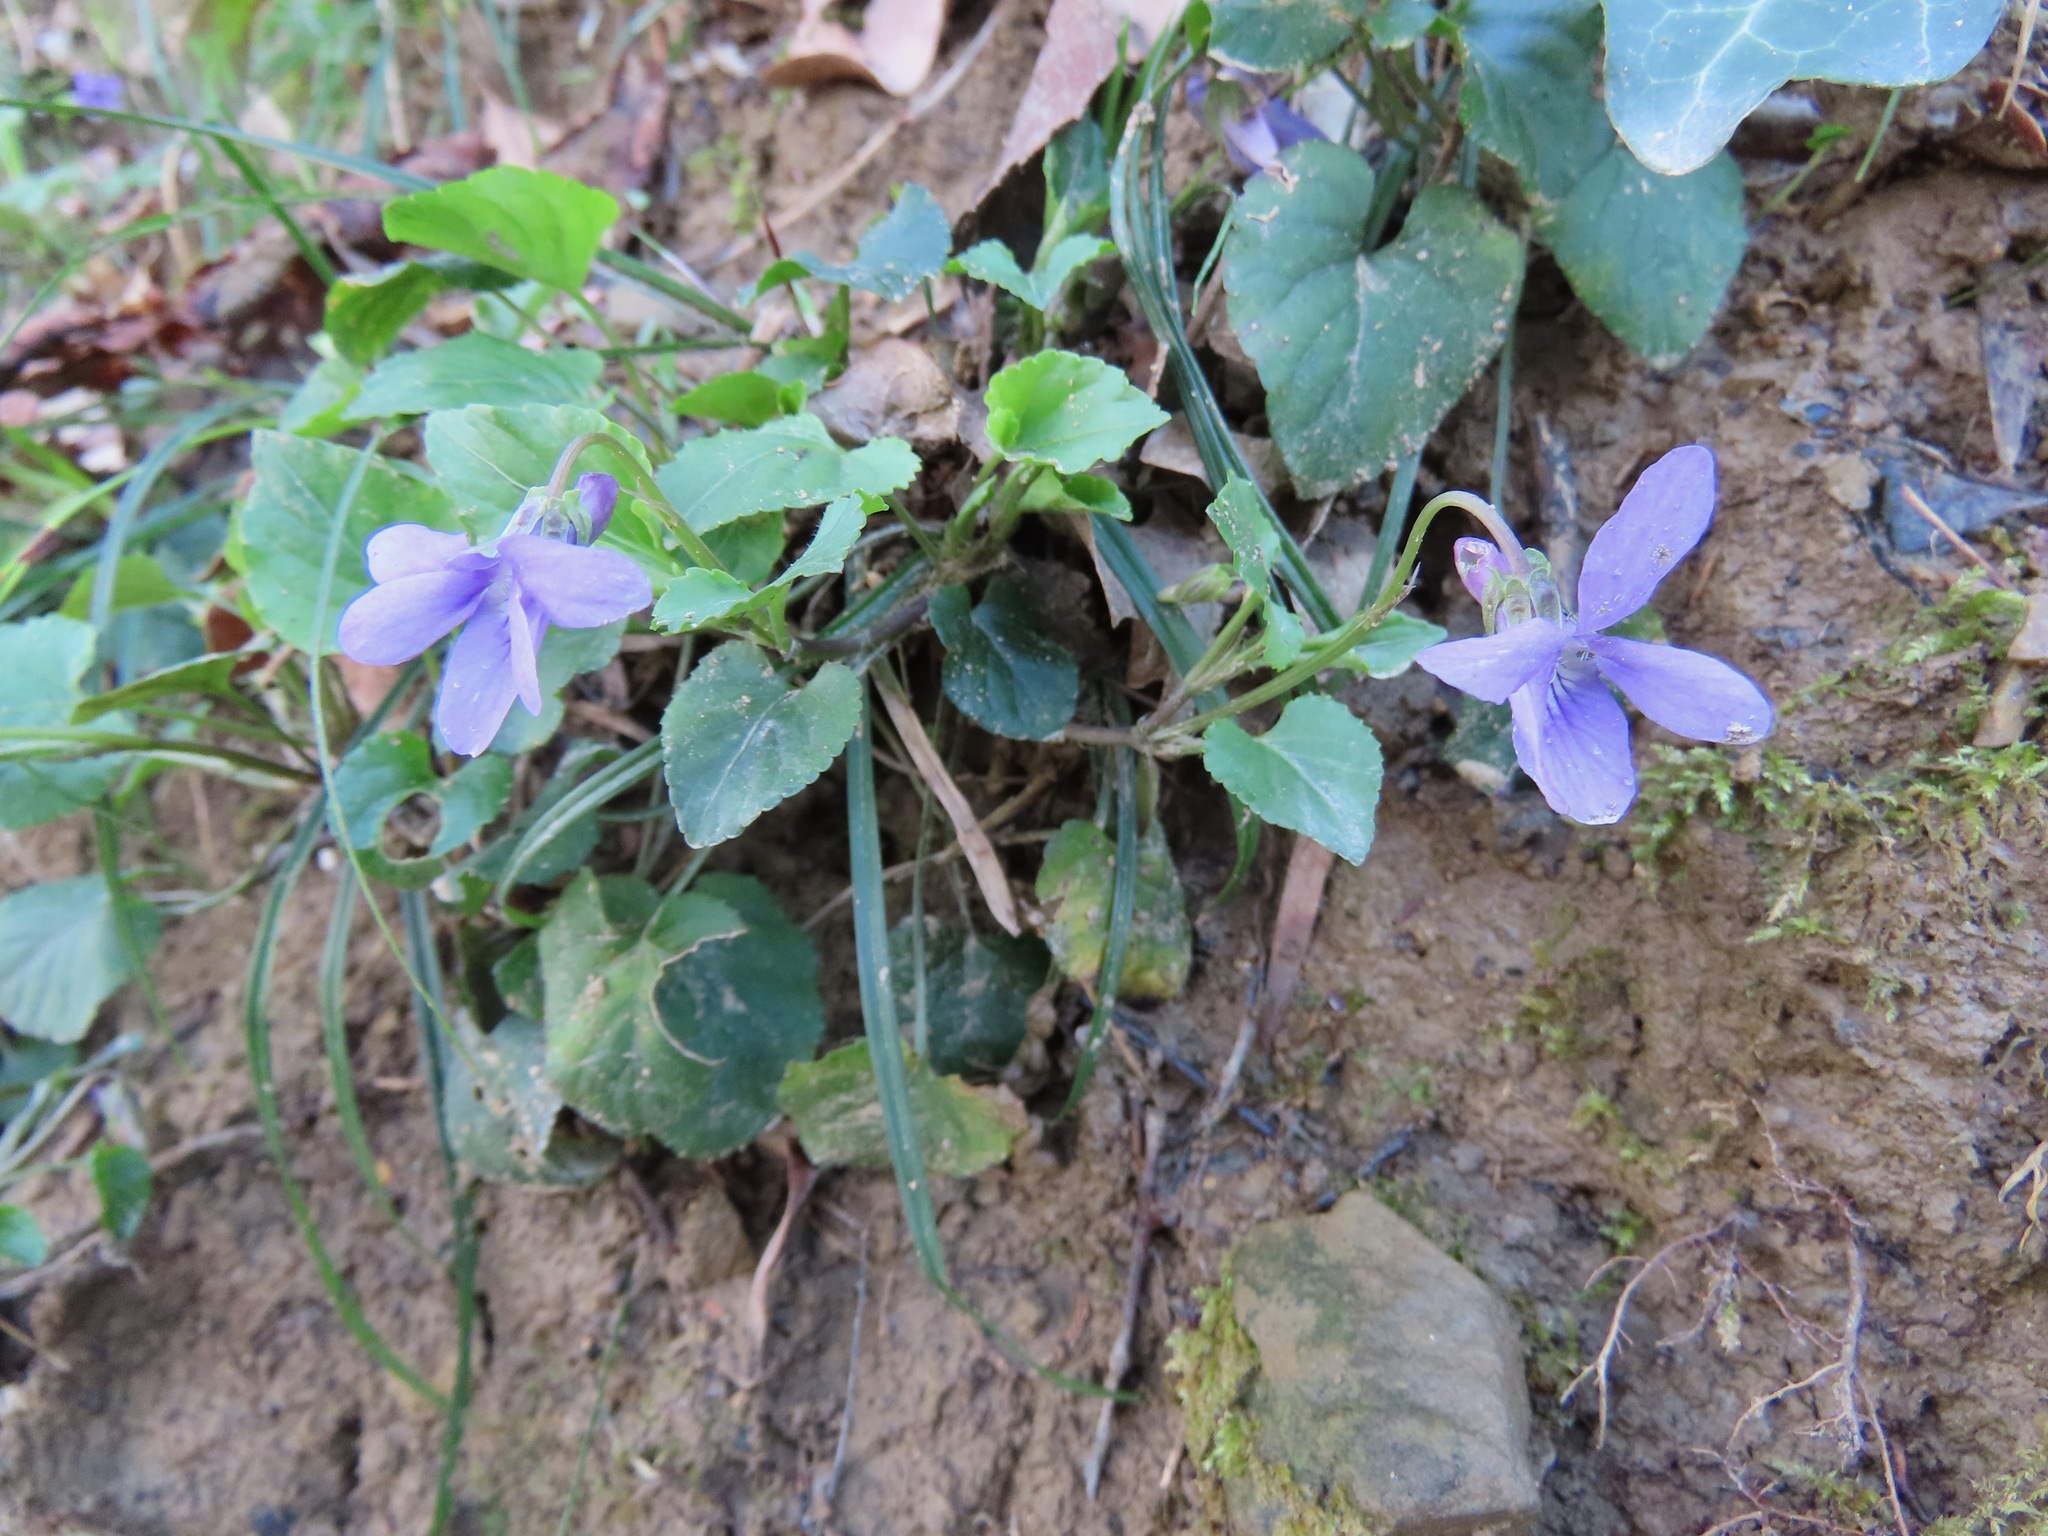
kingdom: Plantae
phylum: Tracheophyta
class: Magnoliopsida
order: Malpighiales
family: Violaceae
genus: Viola
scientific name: Viola reichenbachiana
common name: Early dog-violet
